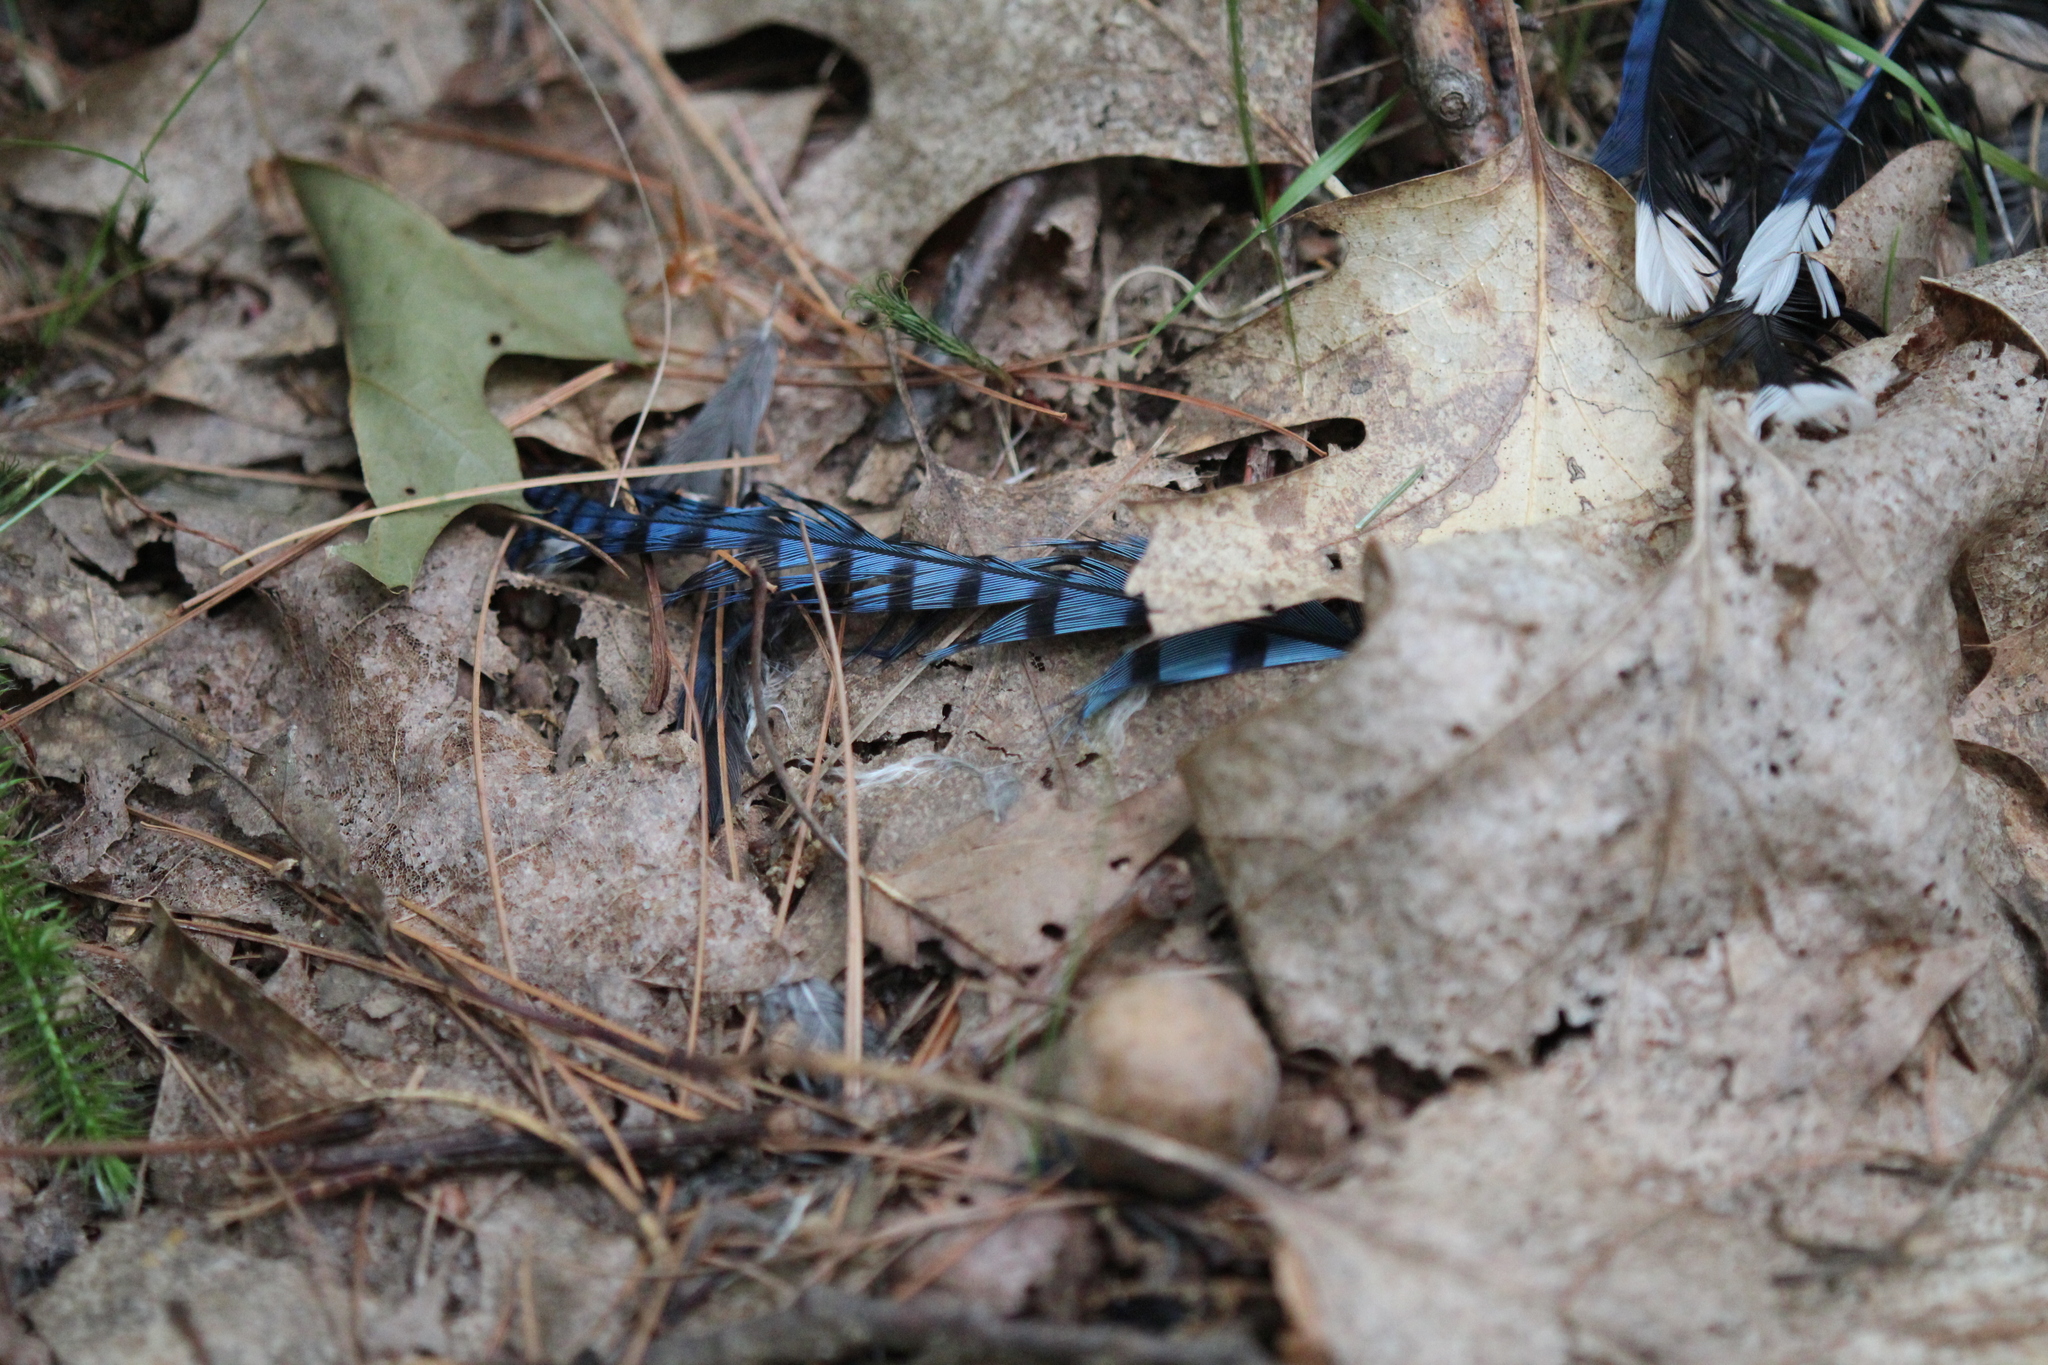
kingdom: Animalia
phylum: Chordata
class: Aves
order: Passeriformes
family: Corvidae
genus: Cyanocitta
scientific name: Cyanocitta cristata
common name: Blue jay
